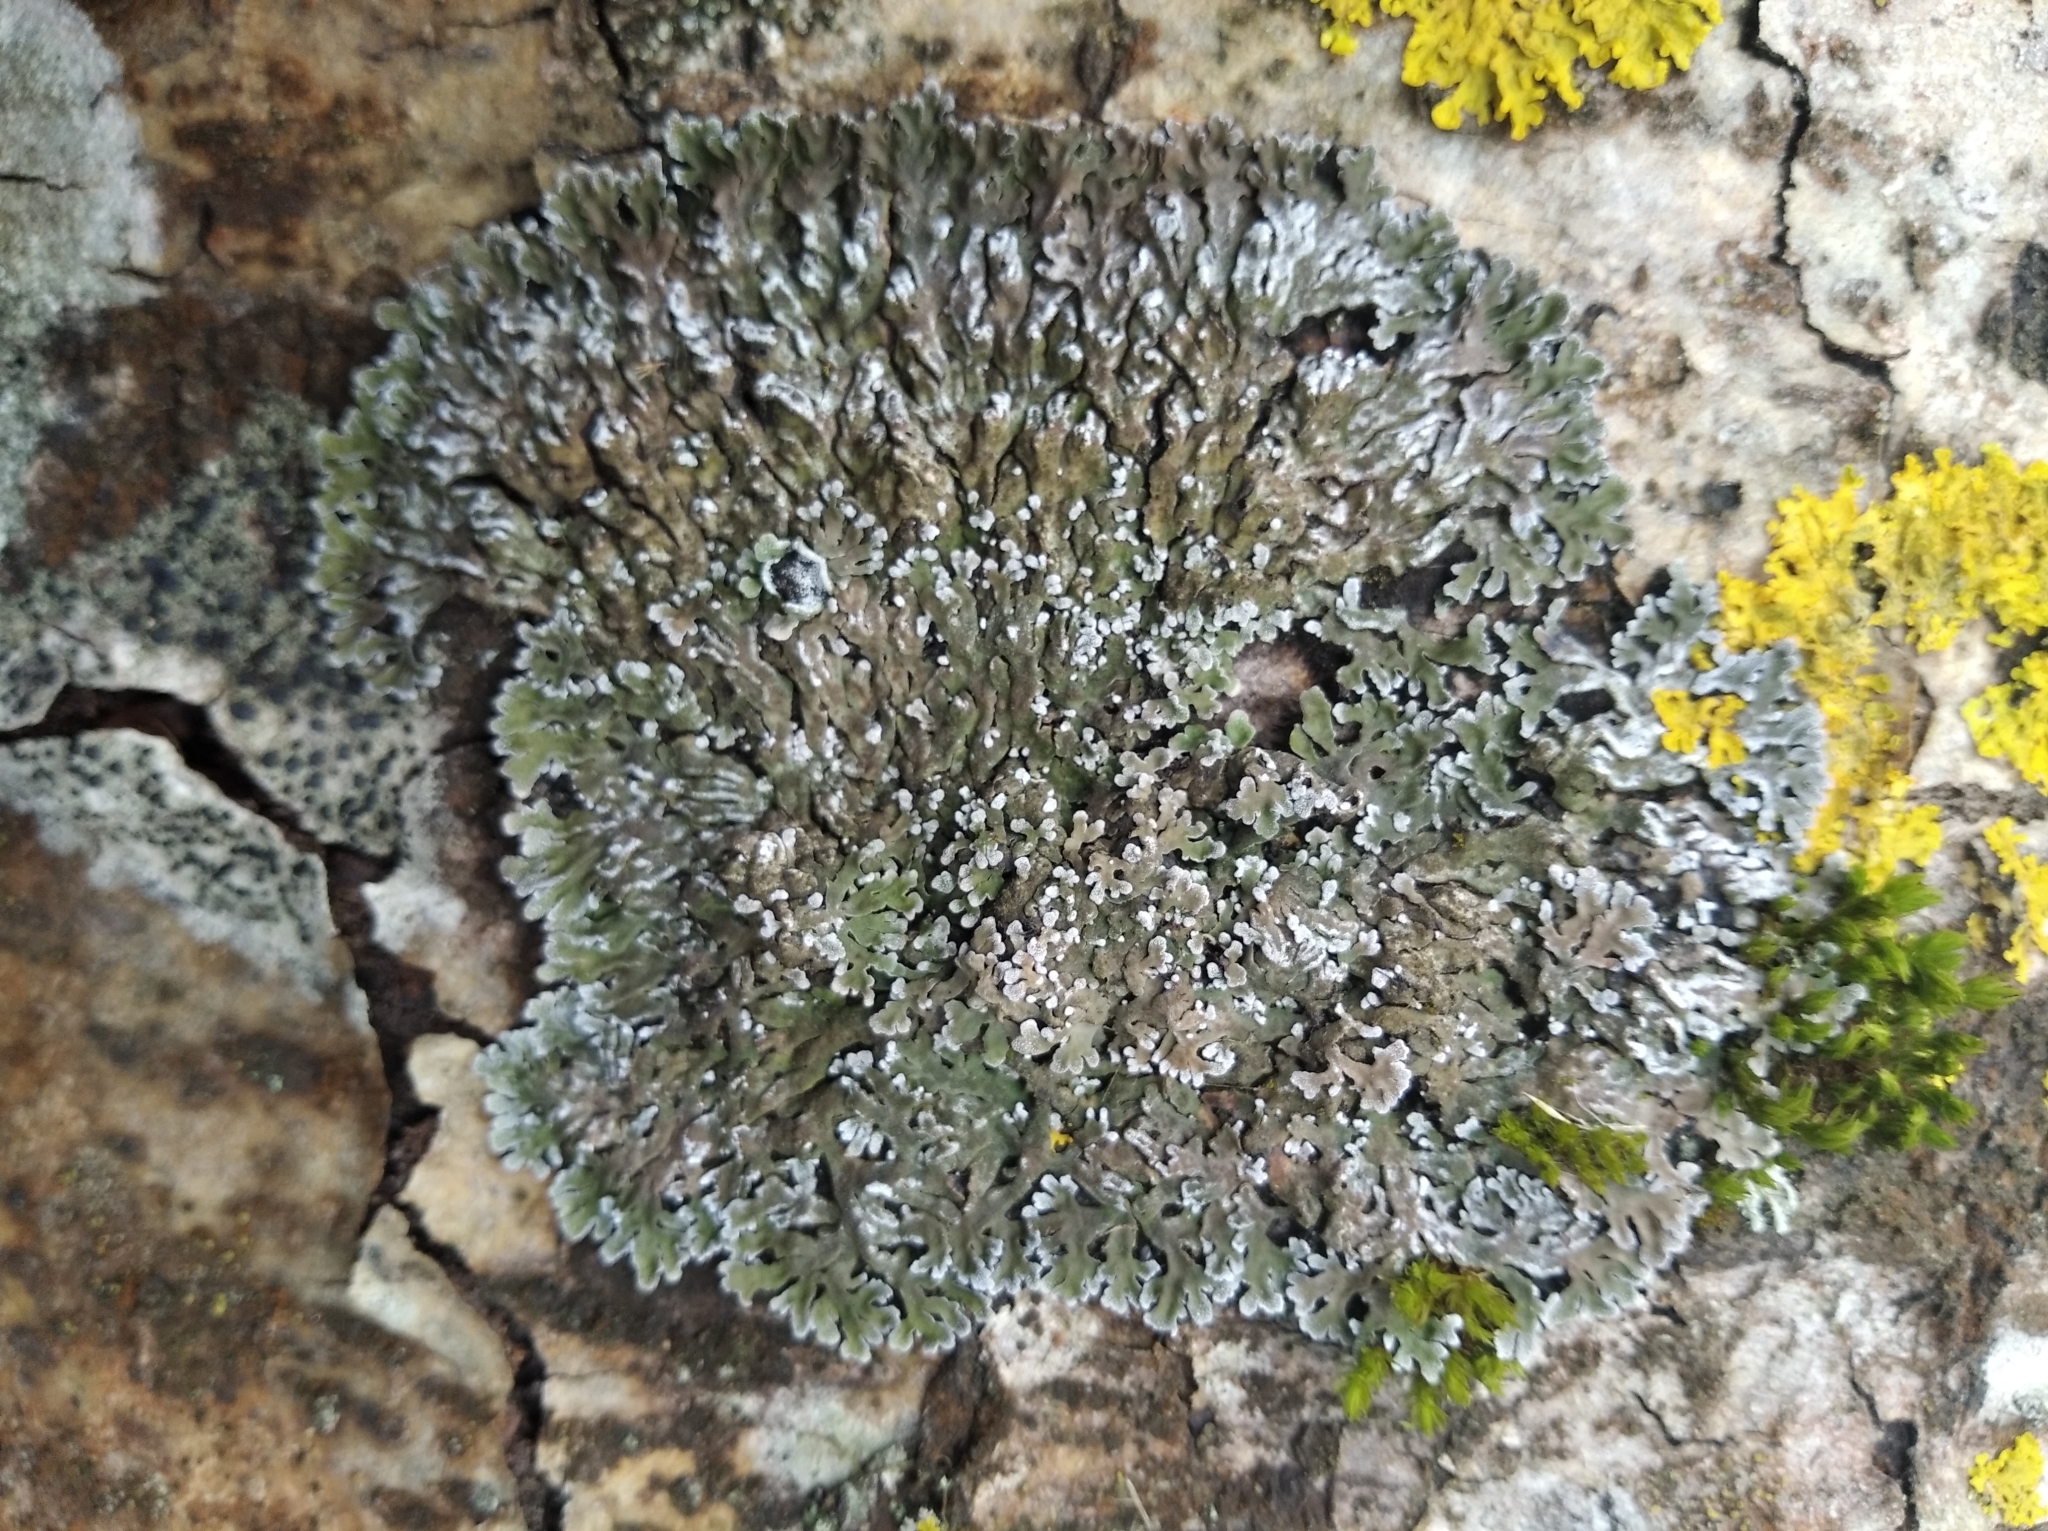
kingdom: Fungi
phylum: Ascomycota
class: Lecanoromycetes
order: Caliciales
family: Physciaceae
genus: Physconia
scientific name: Physconia distorta
